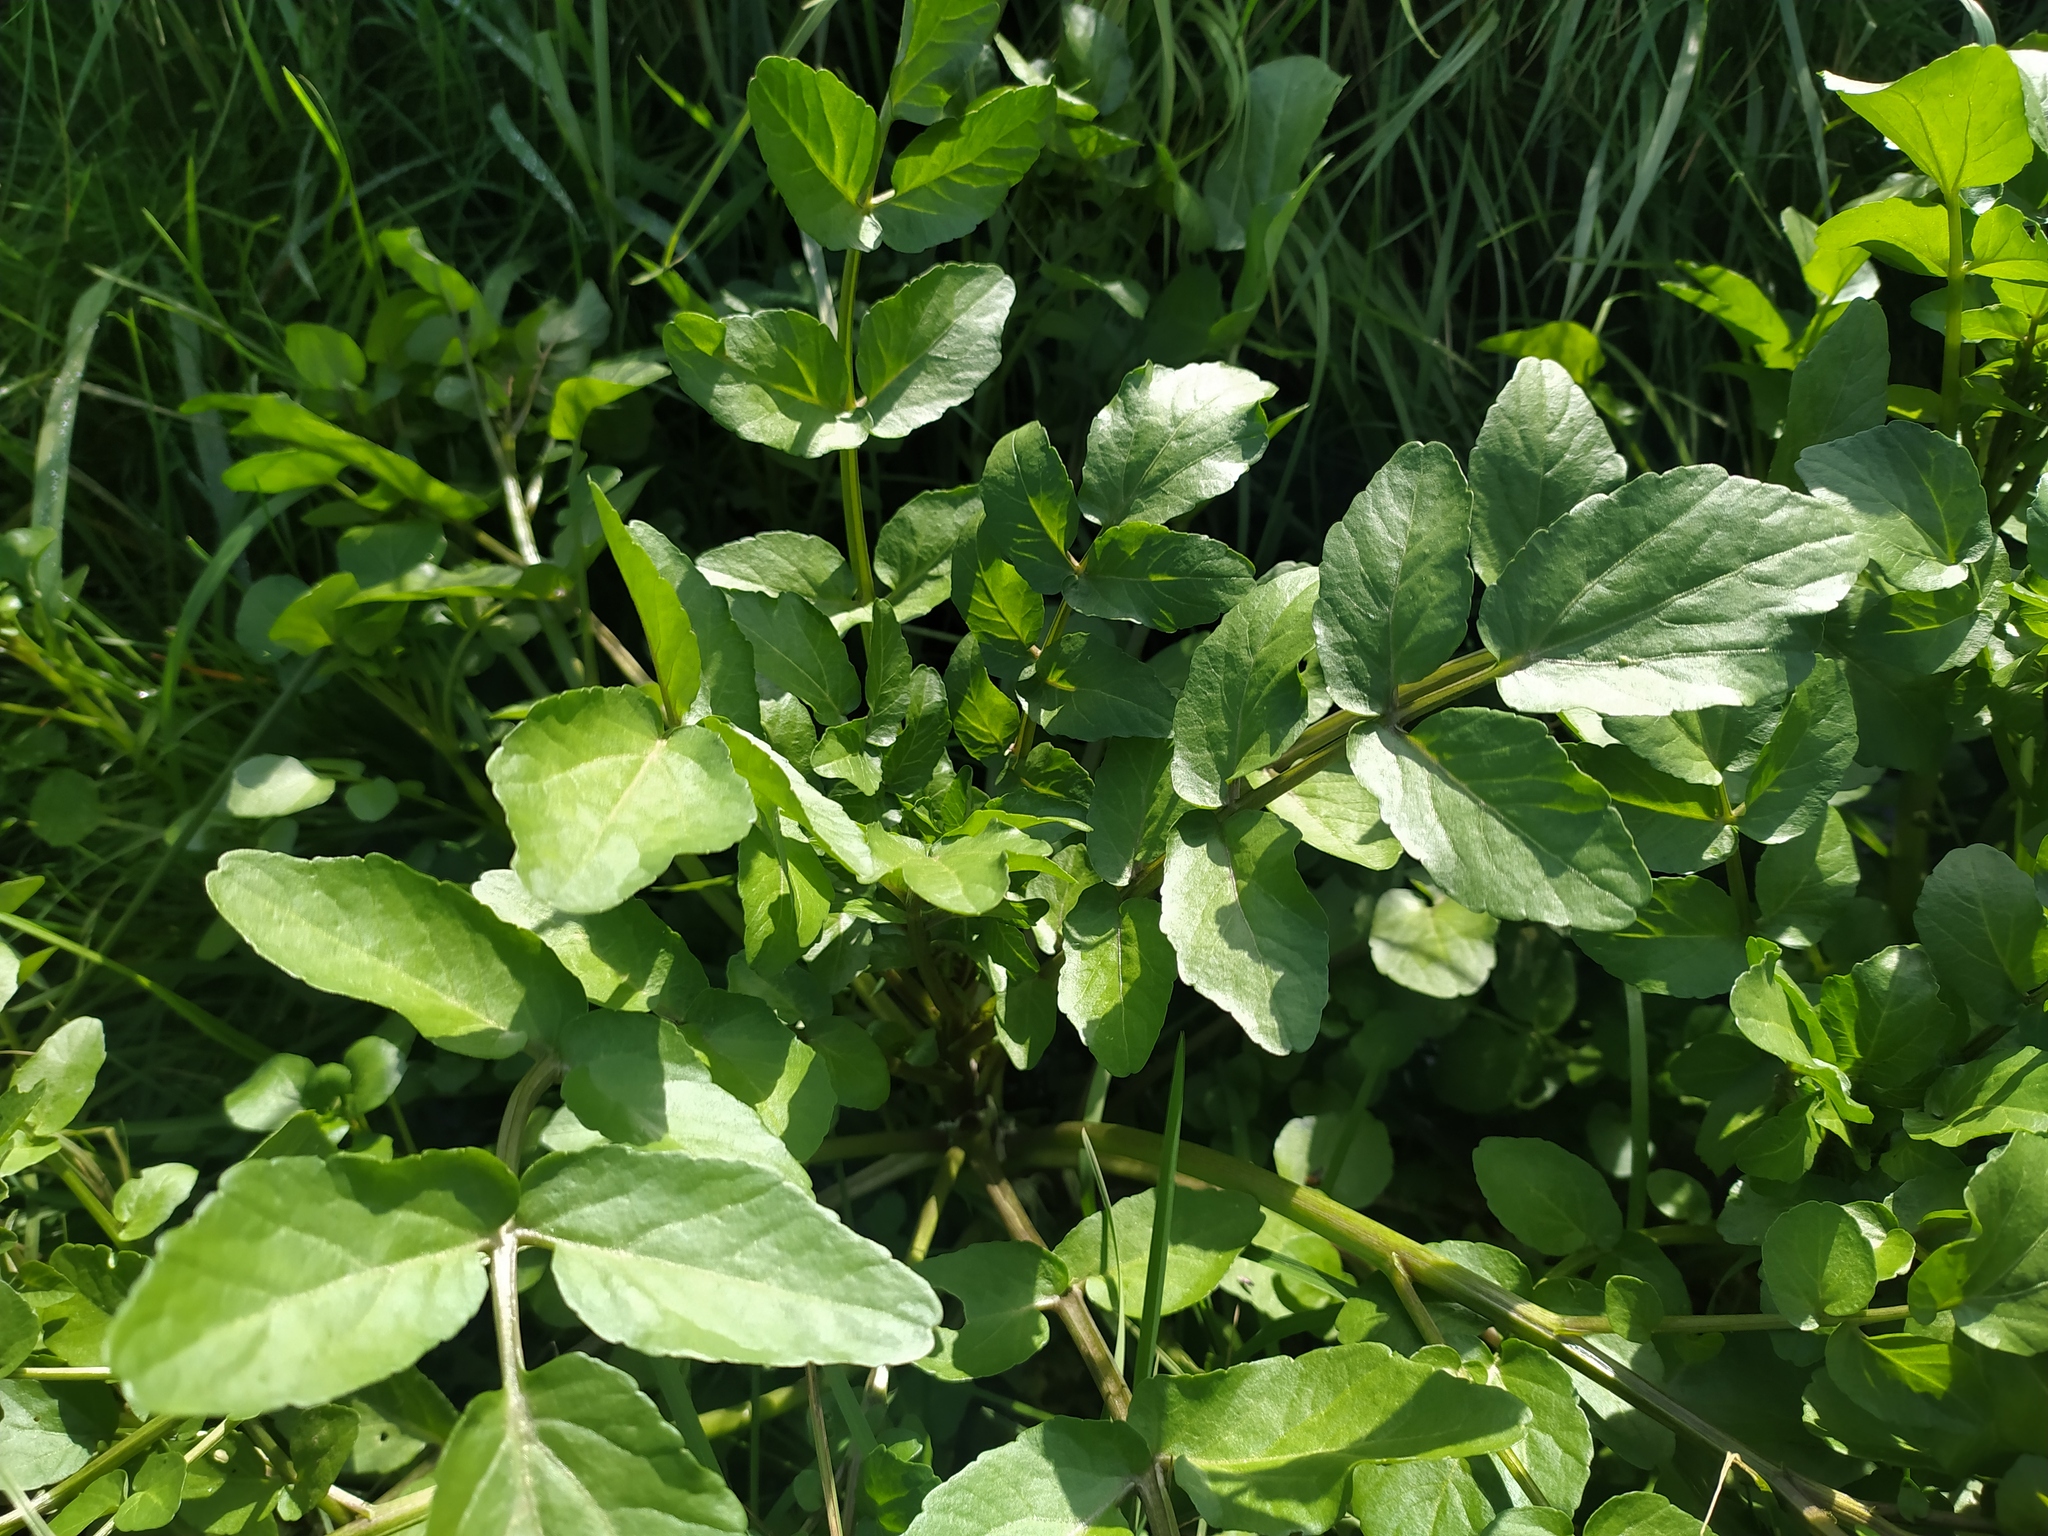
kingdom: Plantae
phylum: Tracheophyta
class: Magnoliopsida
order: Brassicales
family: Brassicaceae
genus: Nasturtium
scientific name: Nasturtium officinale
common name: Watercress
